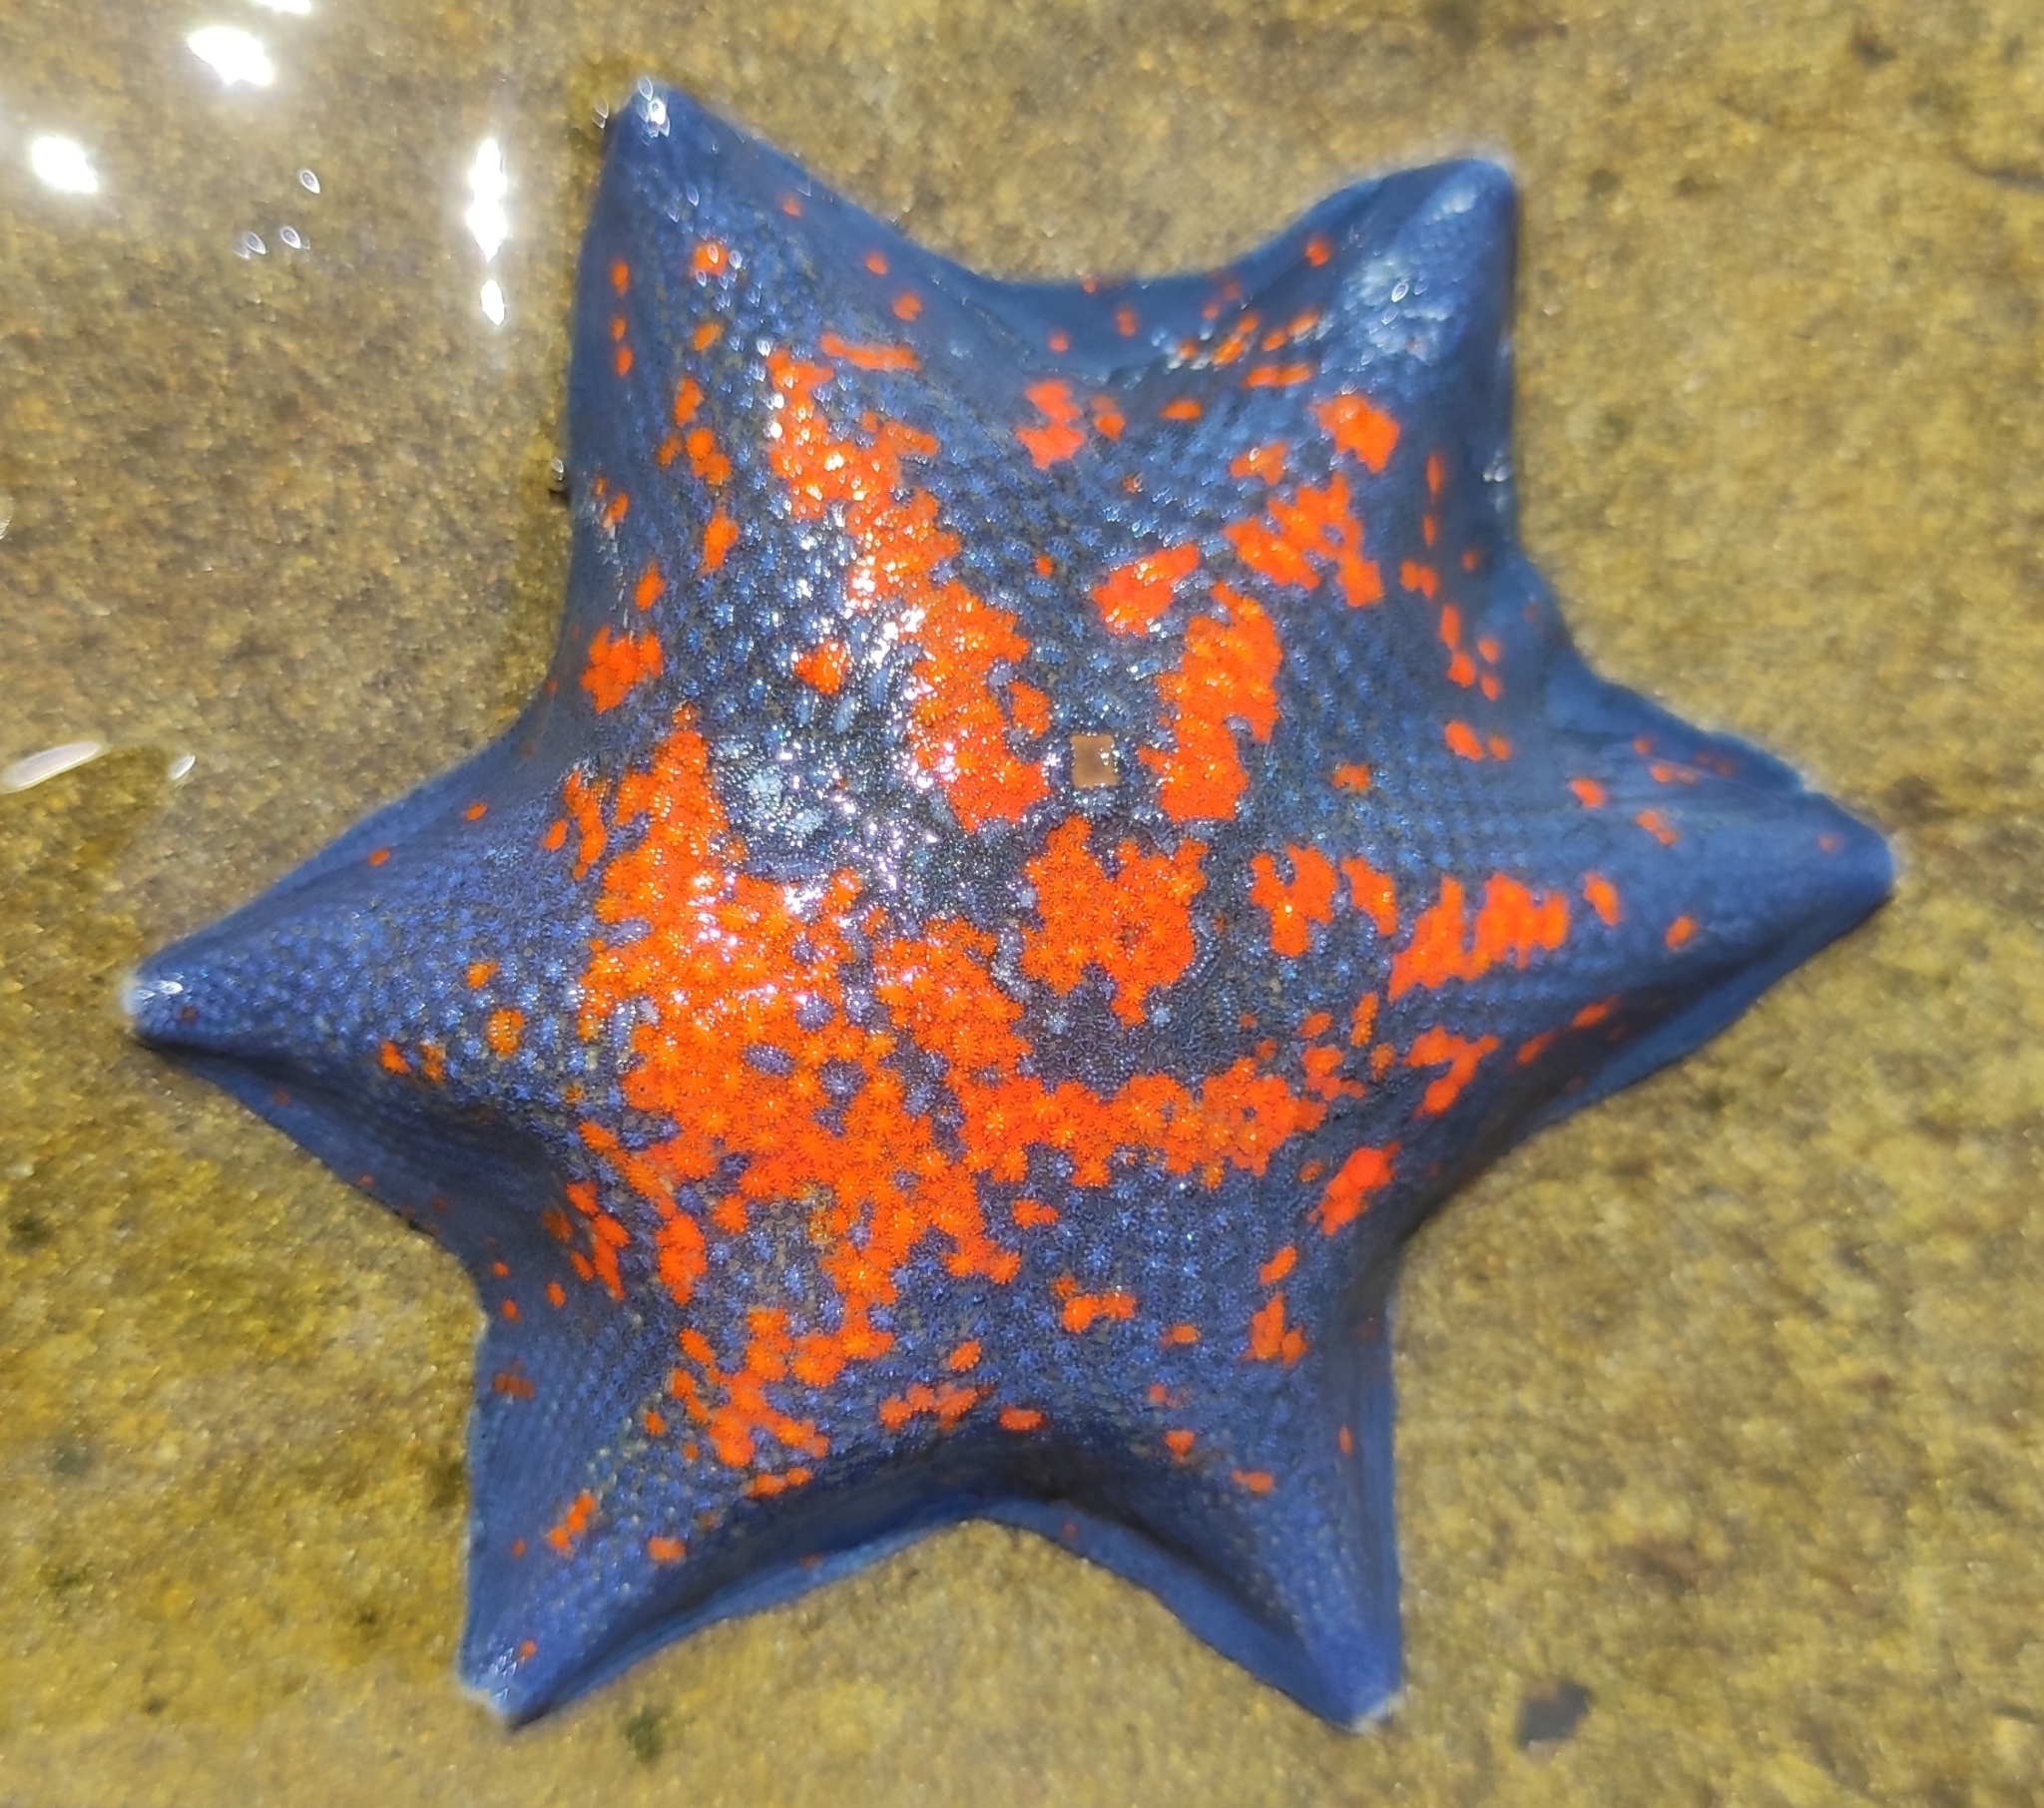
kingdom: Animalia
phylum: Echinodermata
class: Asteroidea
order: Valvatida
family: Asterinidae
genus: Patiria
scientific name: Patiria pectinifera
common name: Blue bat star
